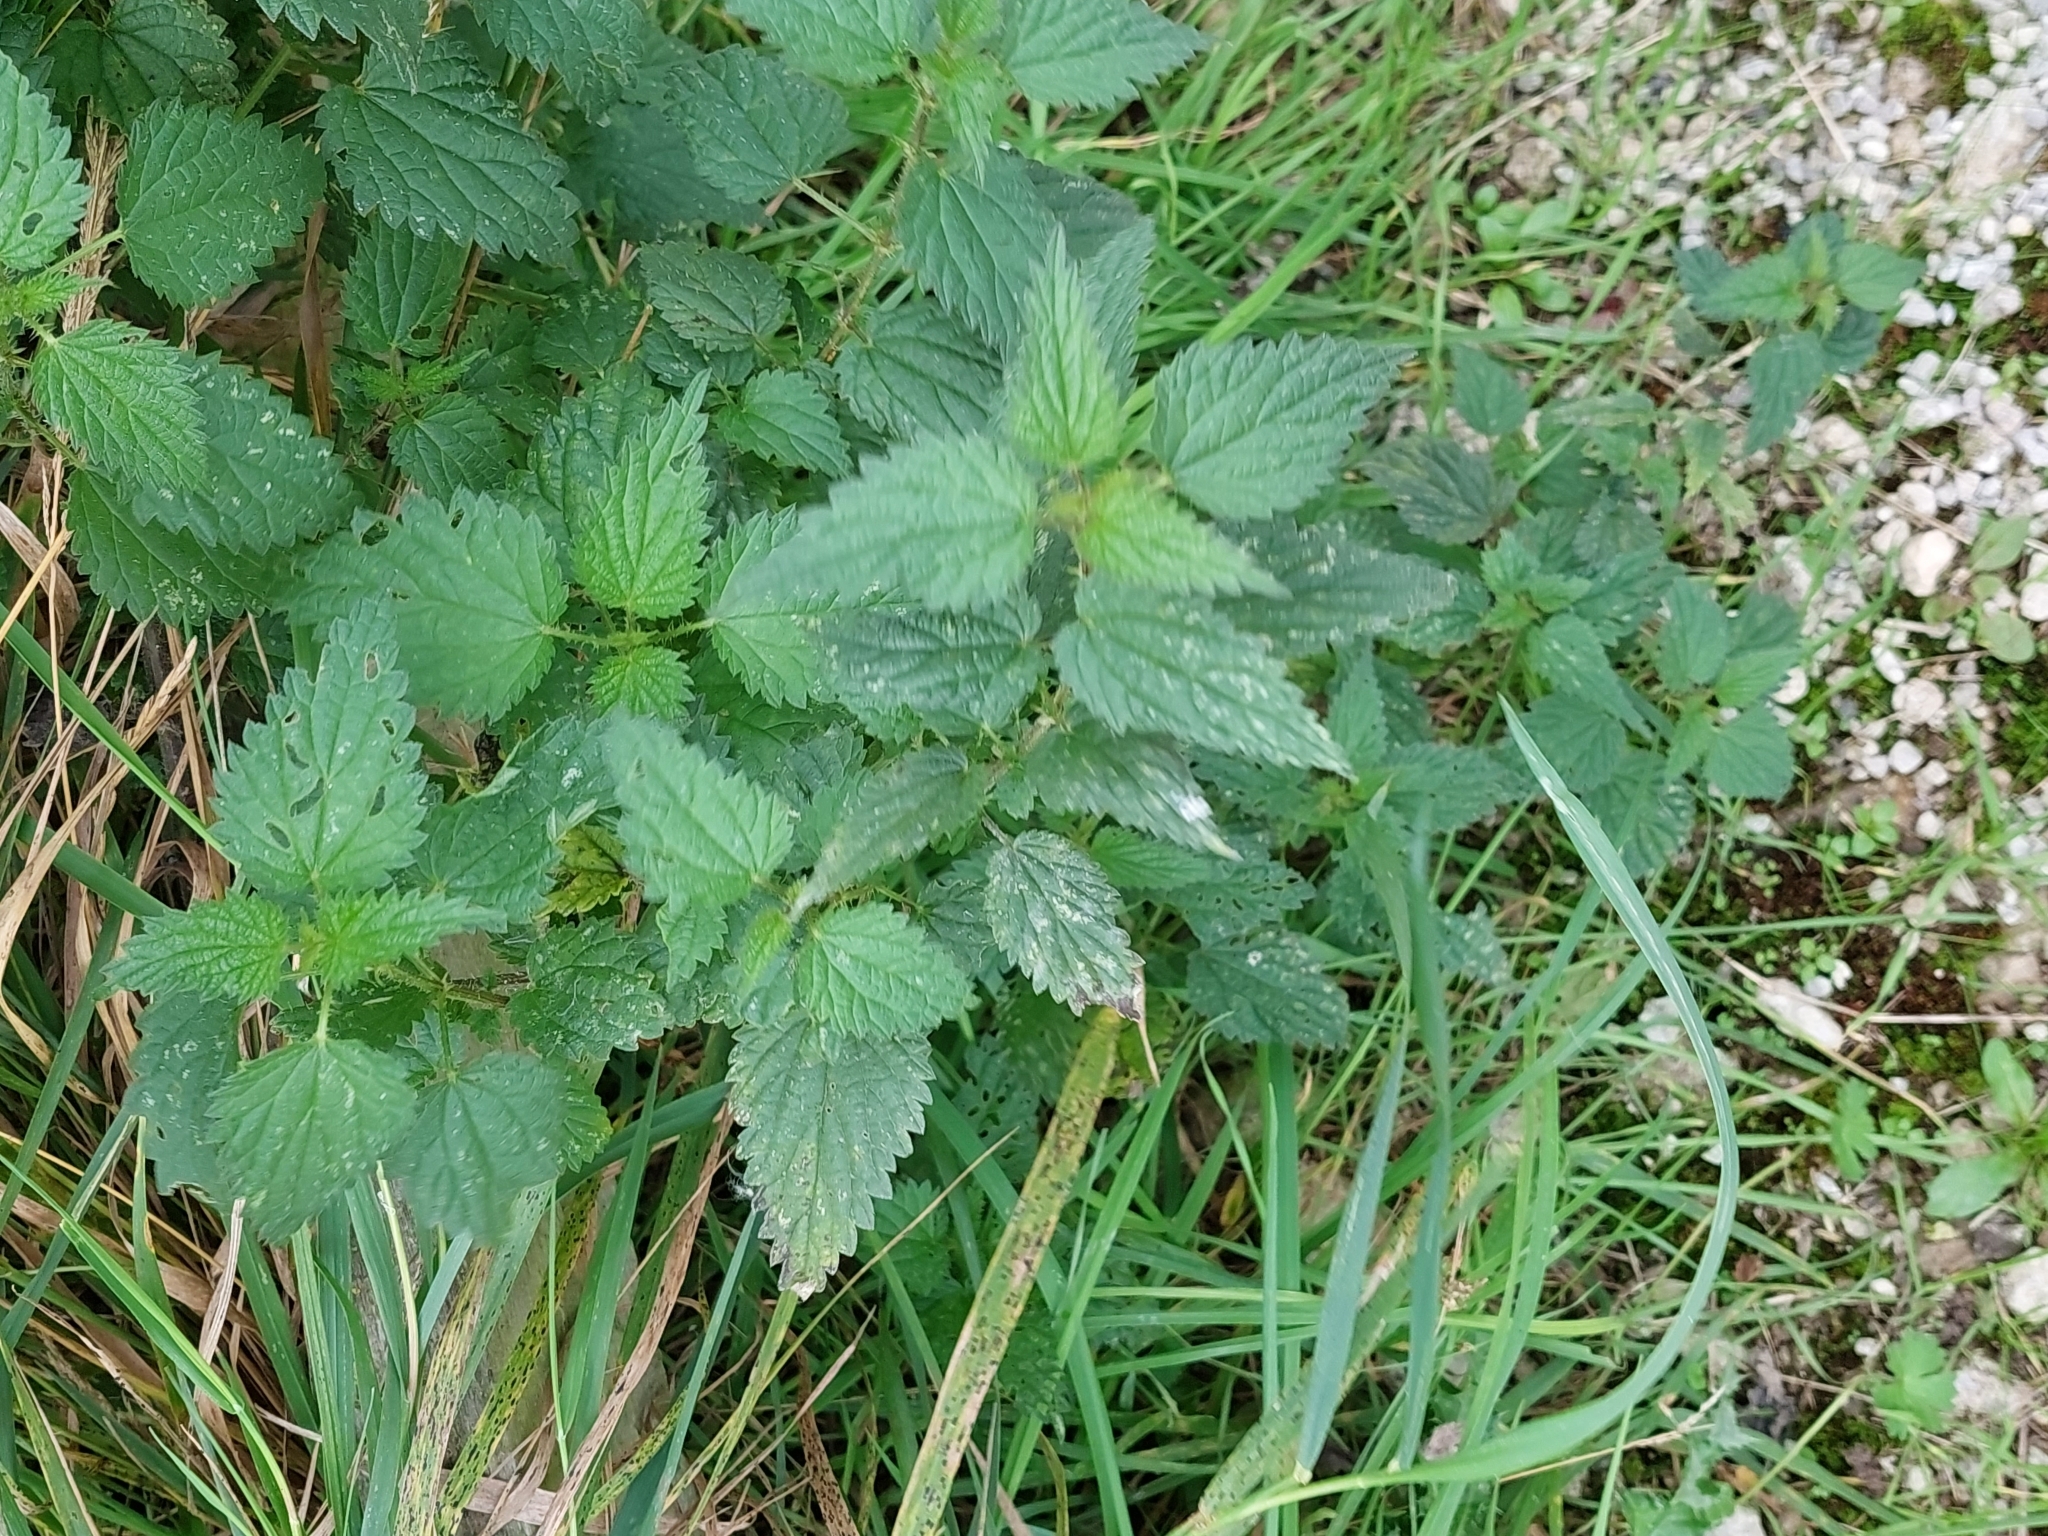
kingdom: Plantae
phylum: Tracheophyta
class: Magnoliopsida
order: Rosales
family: Urticaceae
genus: Urtica
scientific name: Urtica dioica
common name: Common nettle
